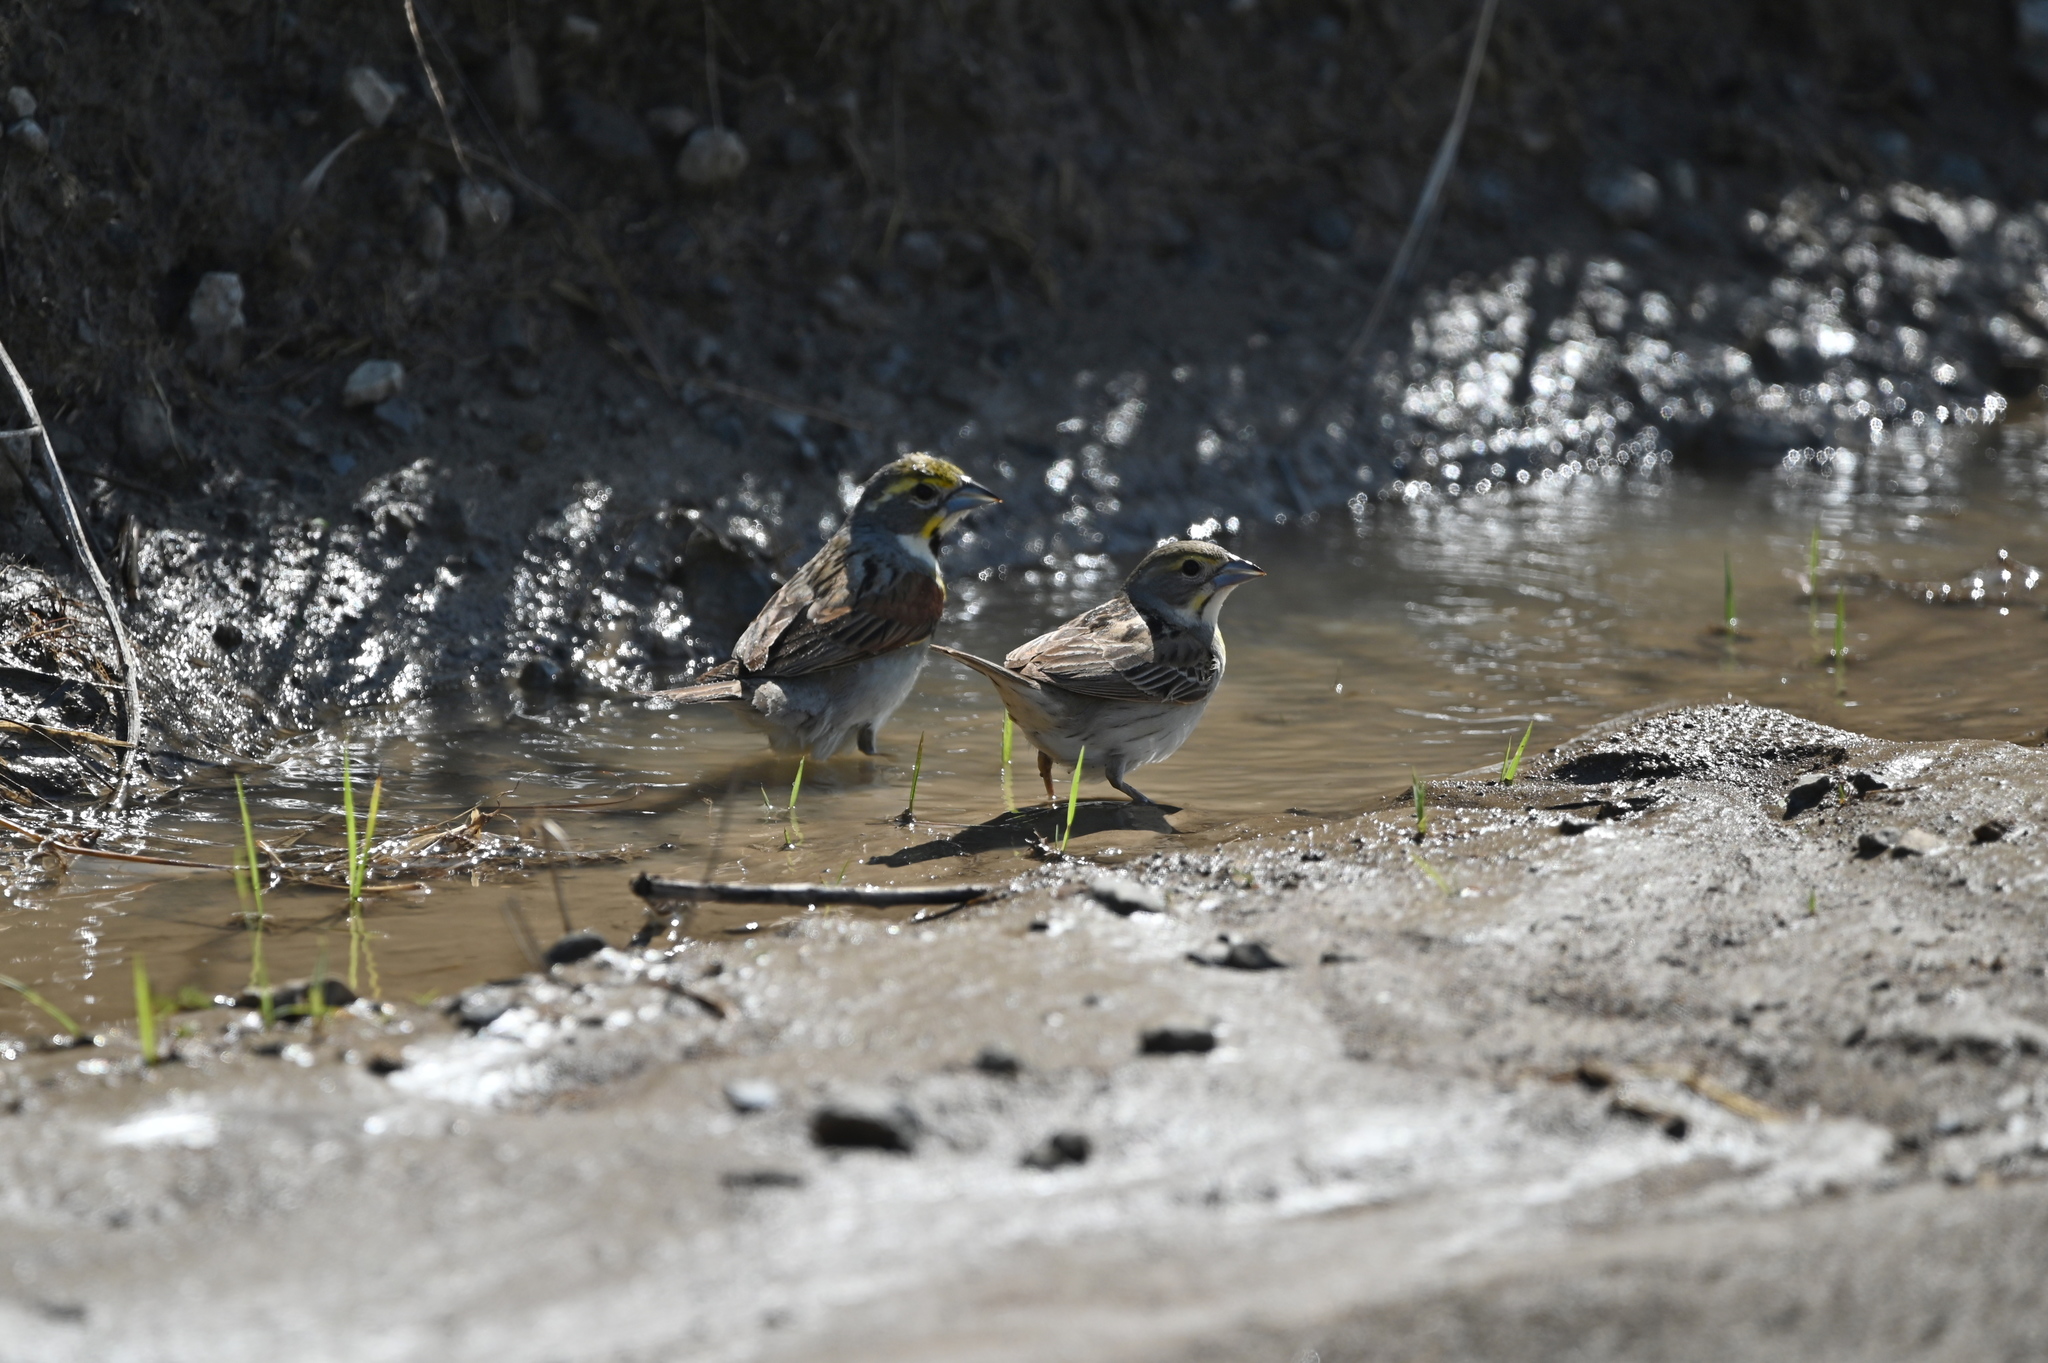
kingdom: Animalia
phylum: Chordata
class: Aves
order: Passeriformes
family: Cardinalidae
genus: Spiza
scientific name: Spiza americana
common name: Dickcissel
